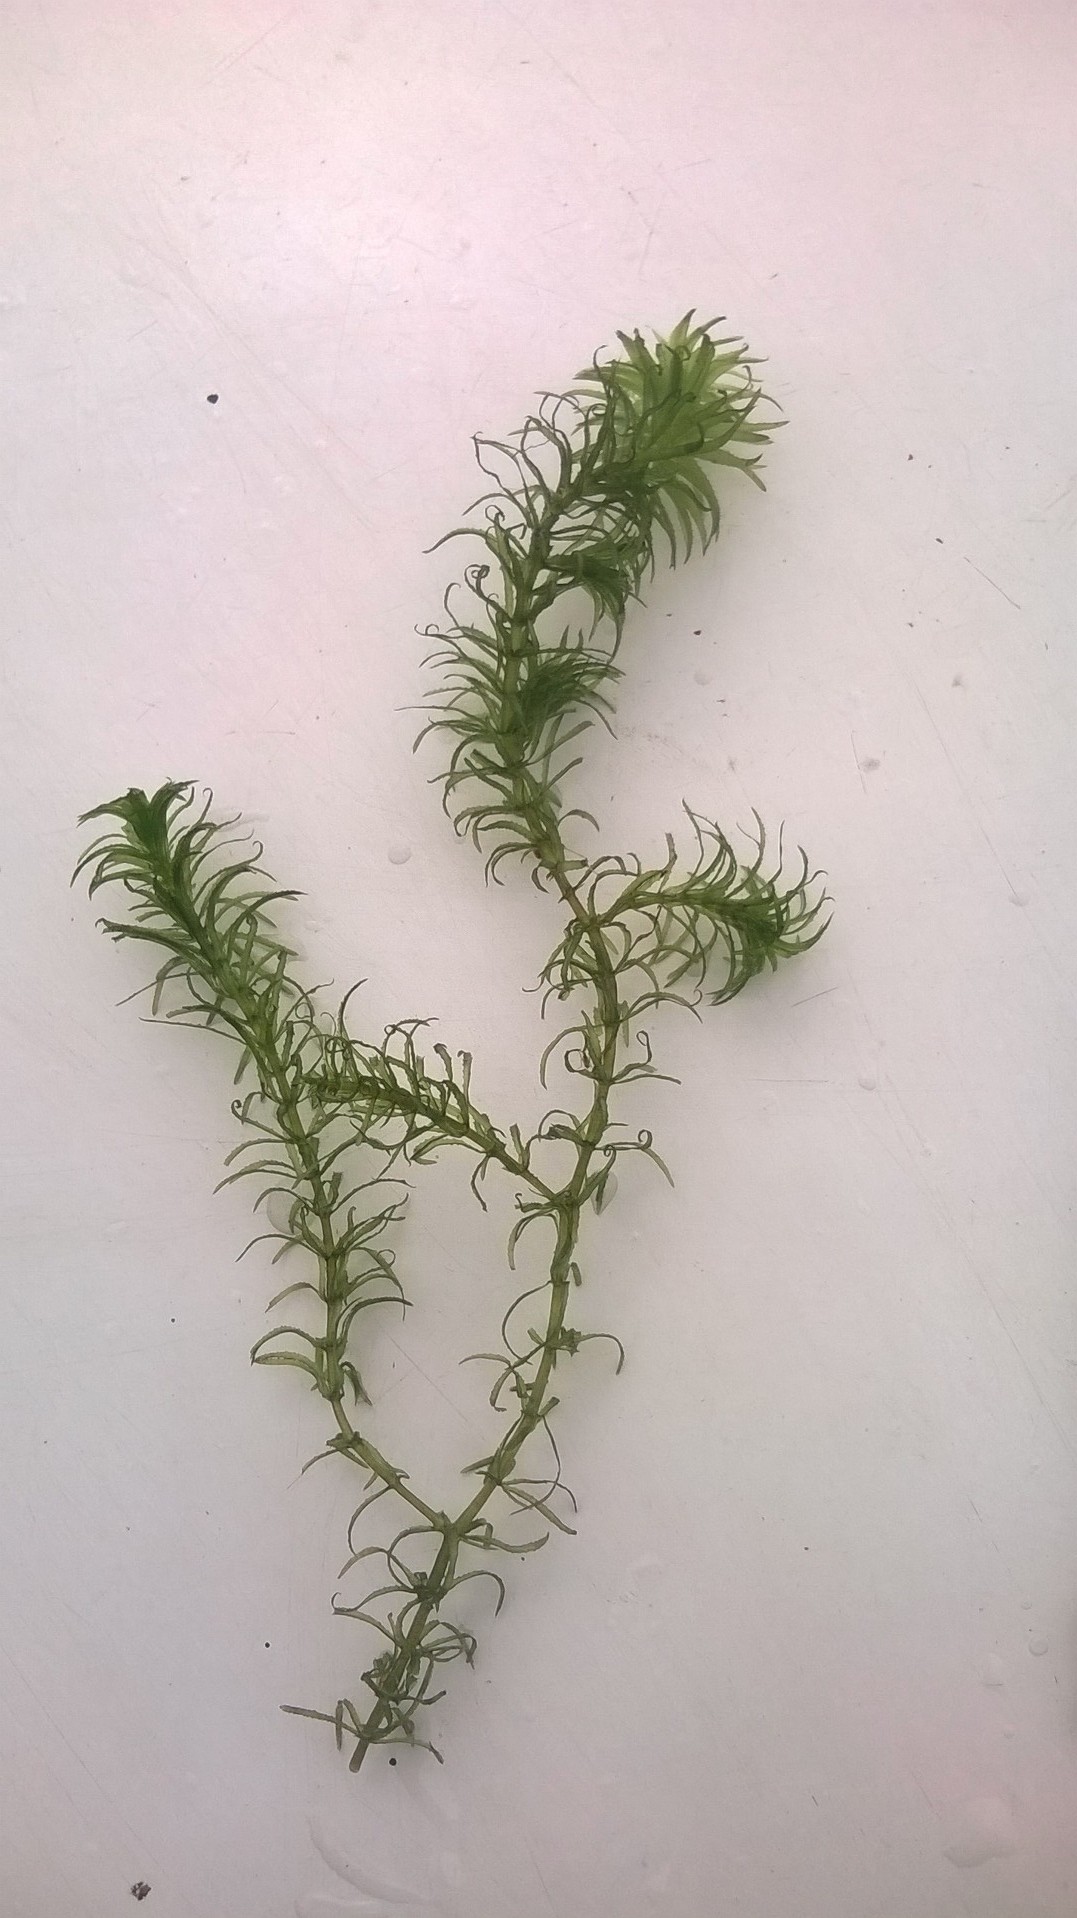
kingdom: Plantae
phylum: Tracheophyta
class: Liliopsida
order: Alismatales
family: Hydrocharitaceae
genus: Hydrilla
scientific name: Hydrilla verticillata
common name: Florida-elodea
